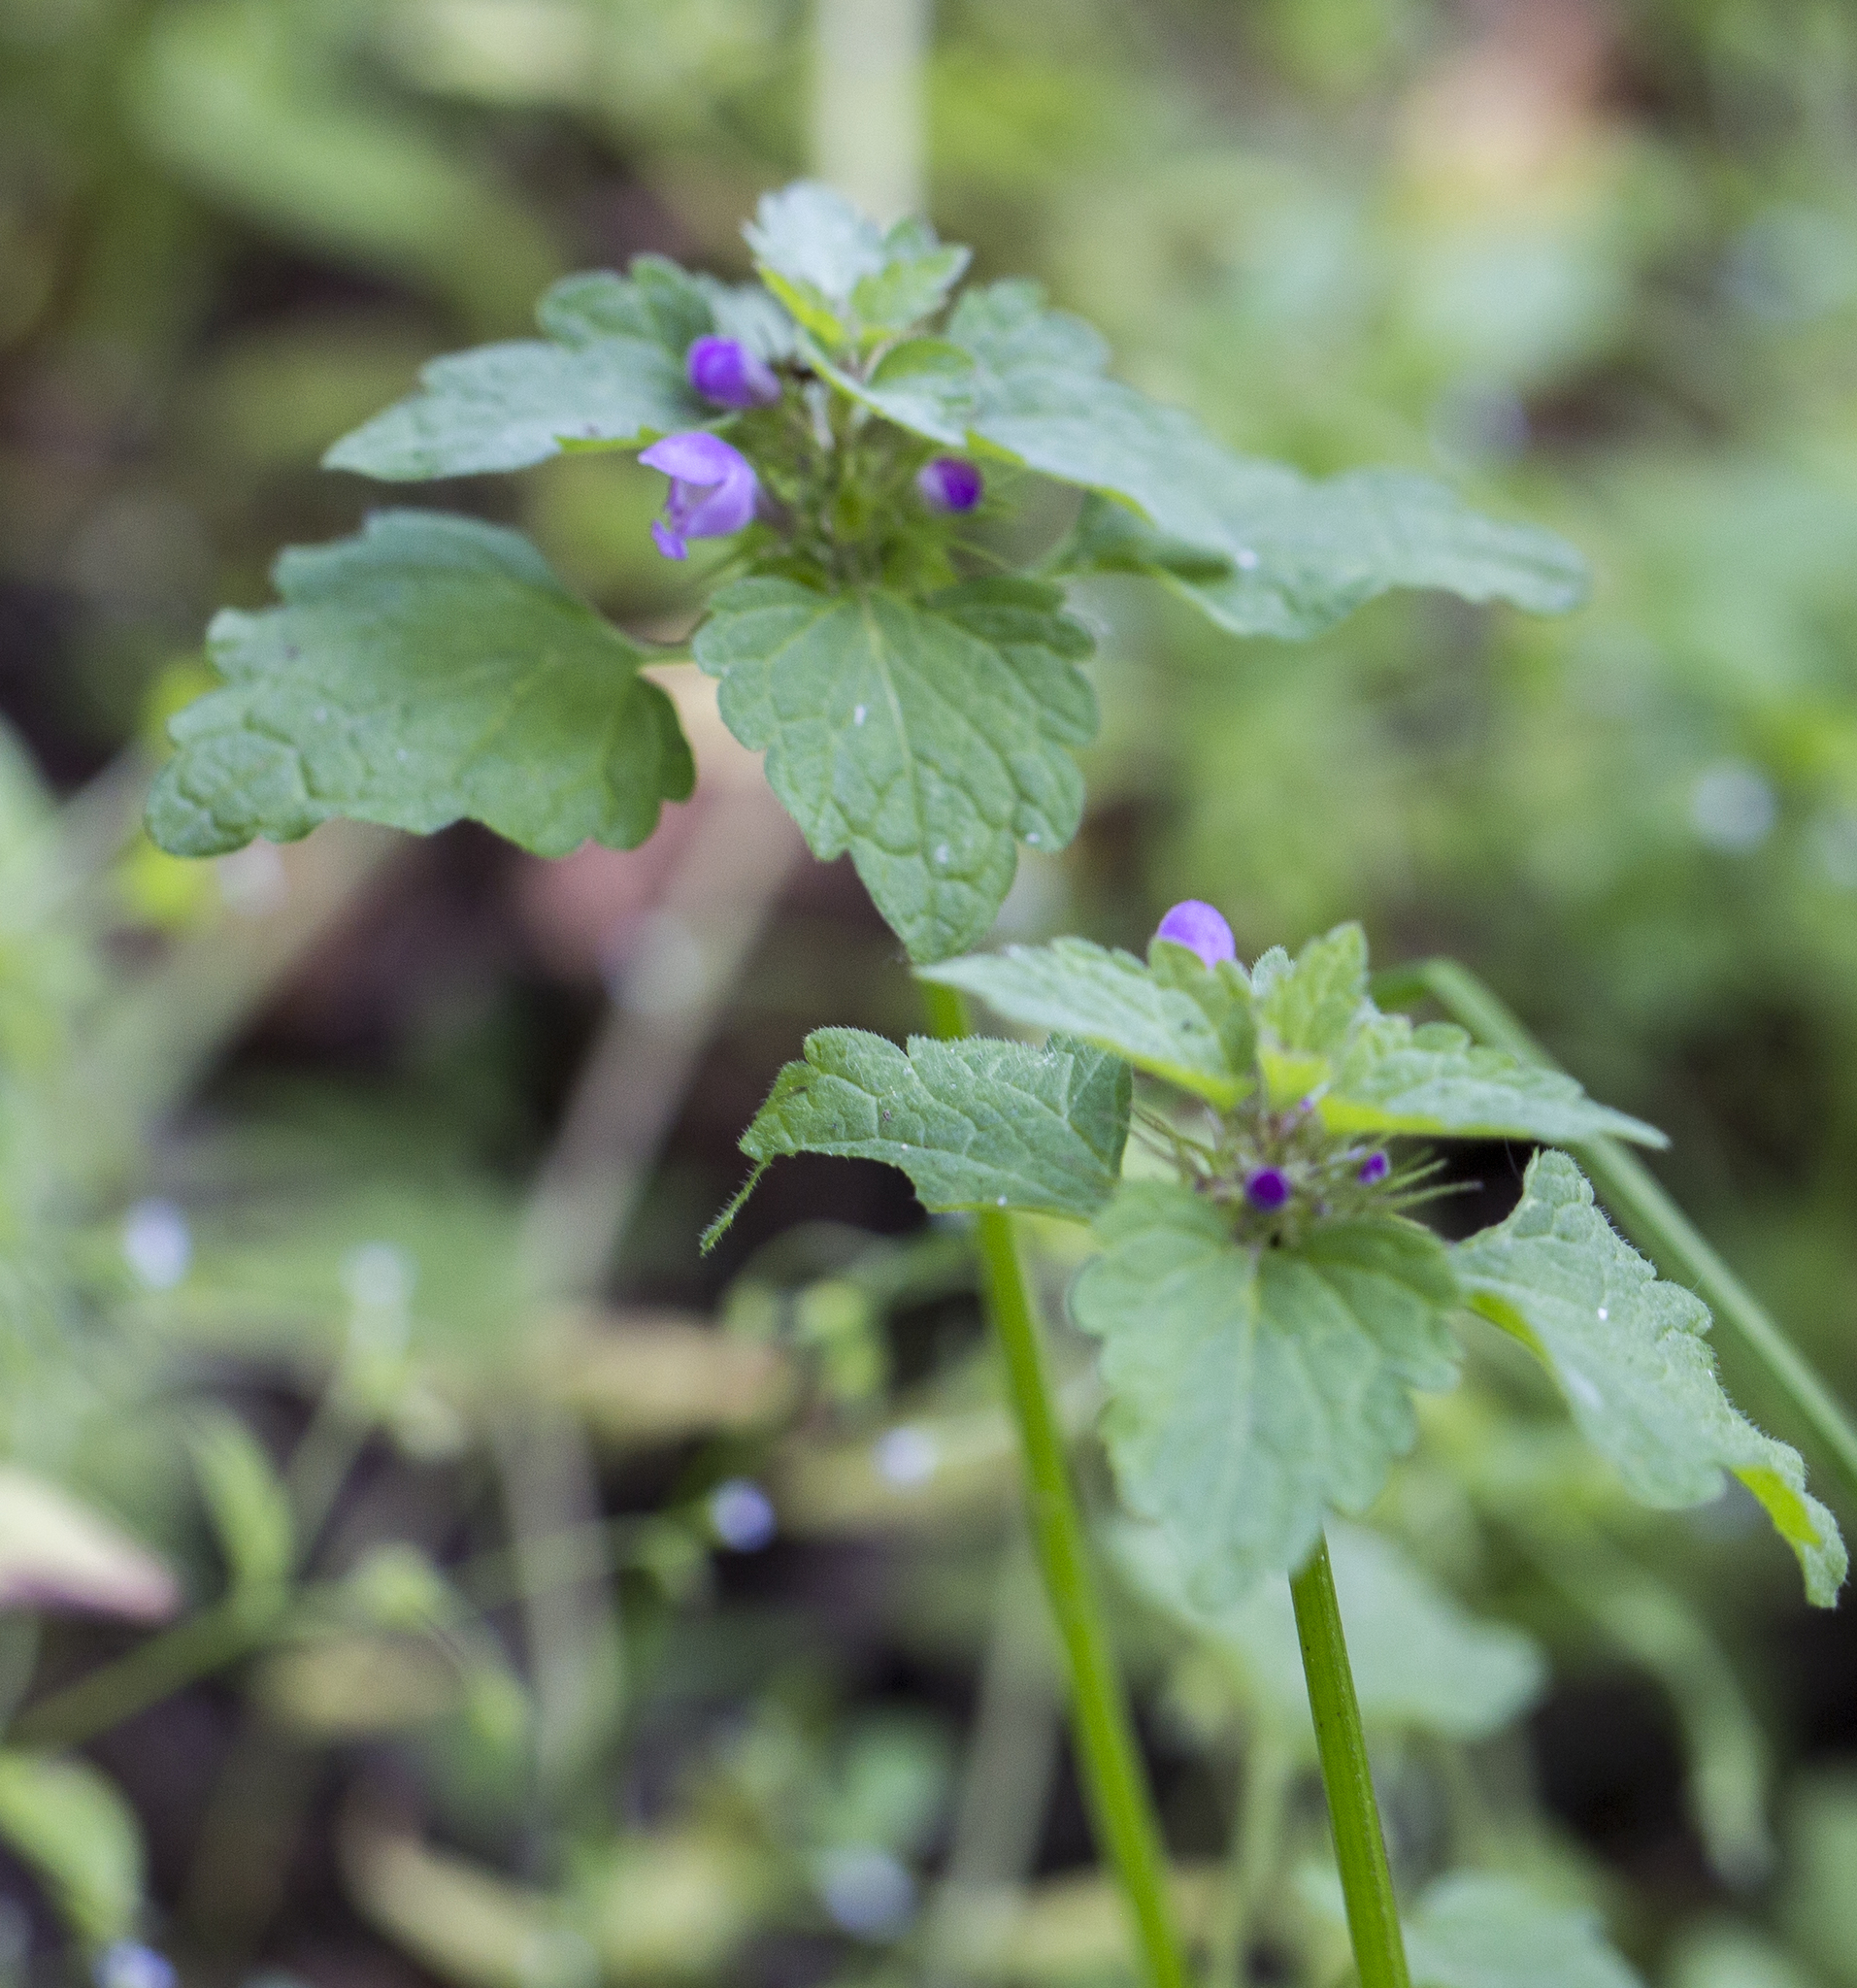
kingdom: Plantae
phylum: Tracheophyta
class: Magnoliopsida
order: Lamiales
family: Lamiaceae
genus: Lamium
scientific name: Lamium purpureum
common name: Red dead-nettle
